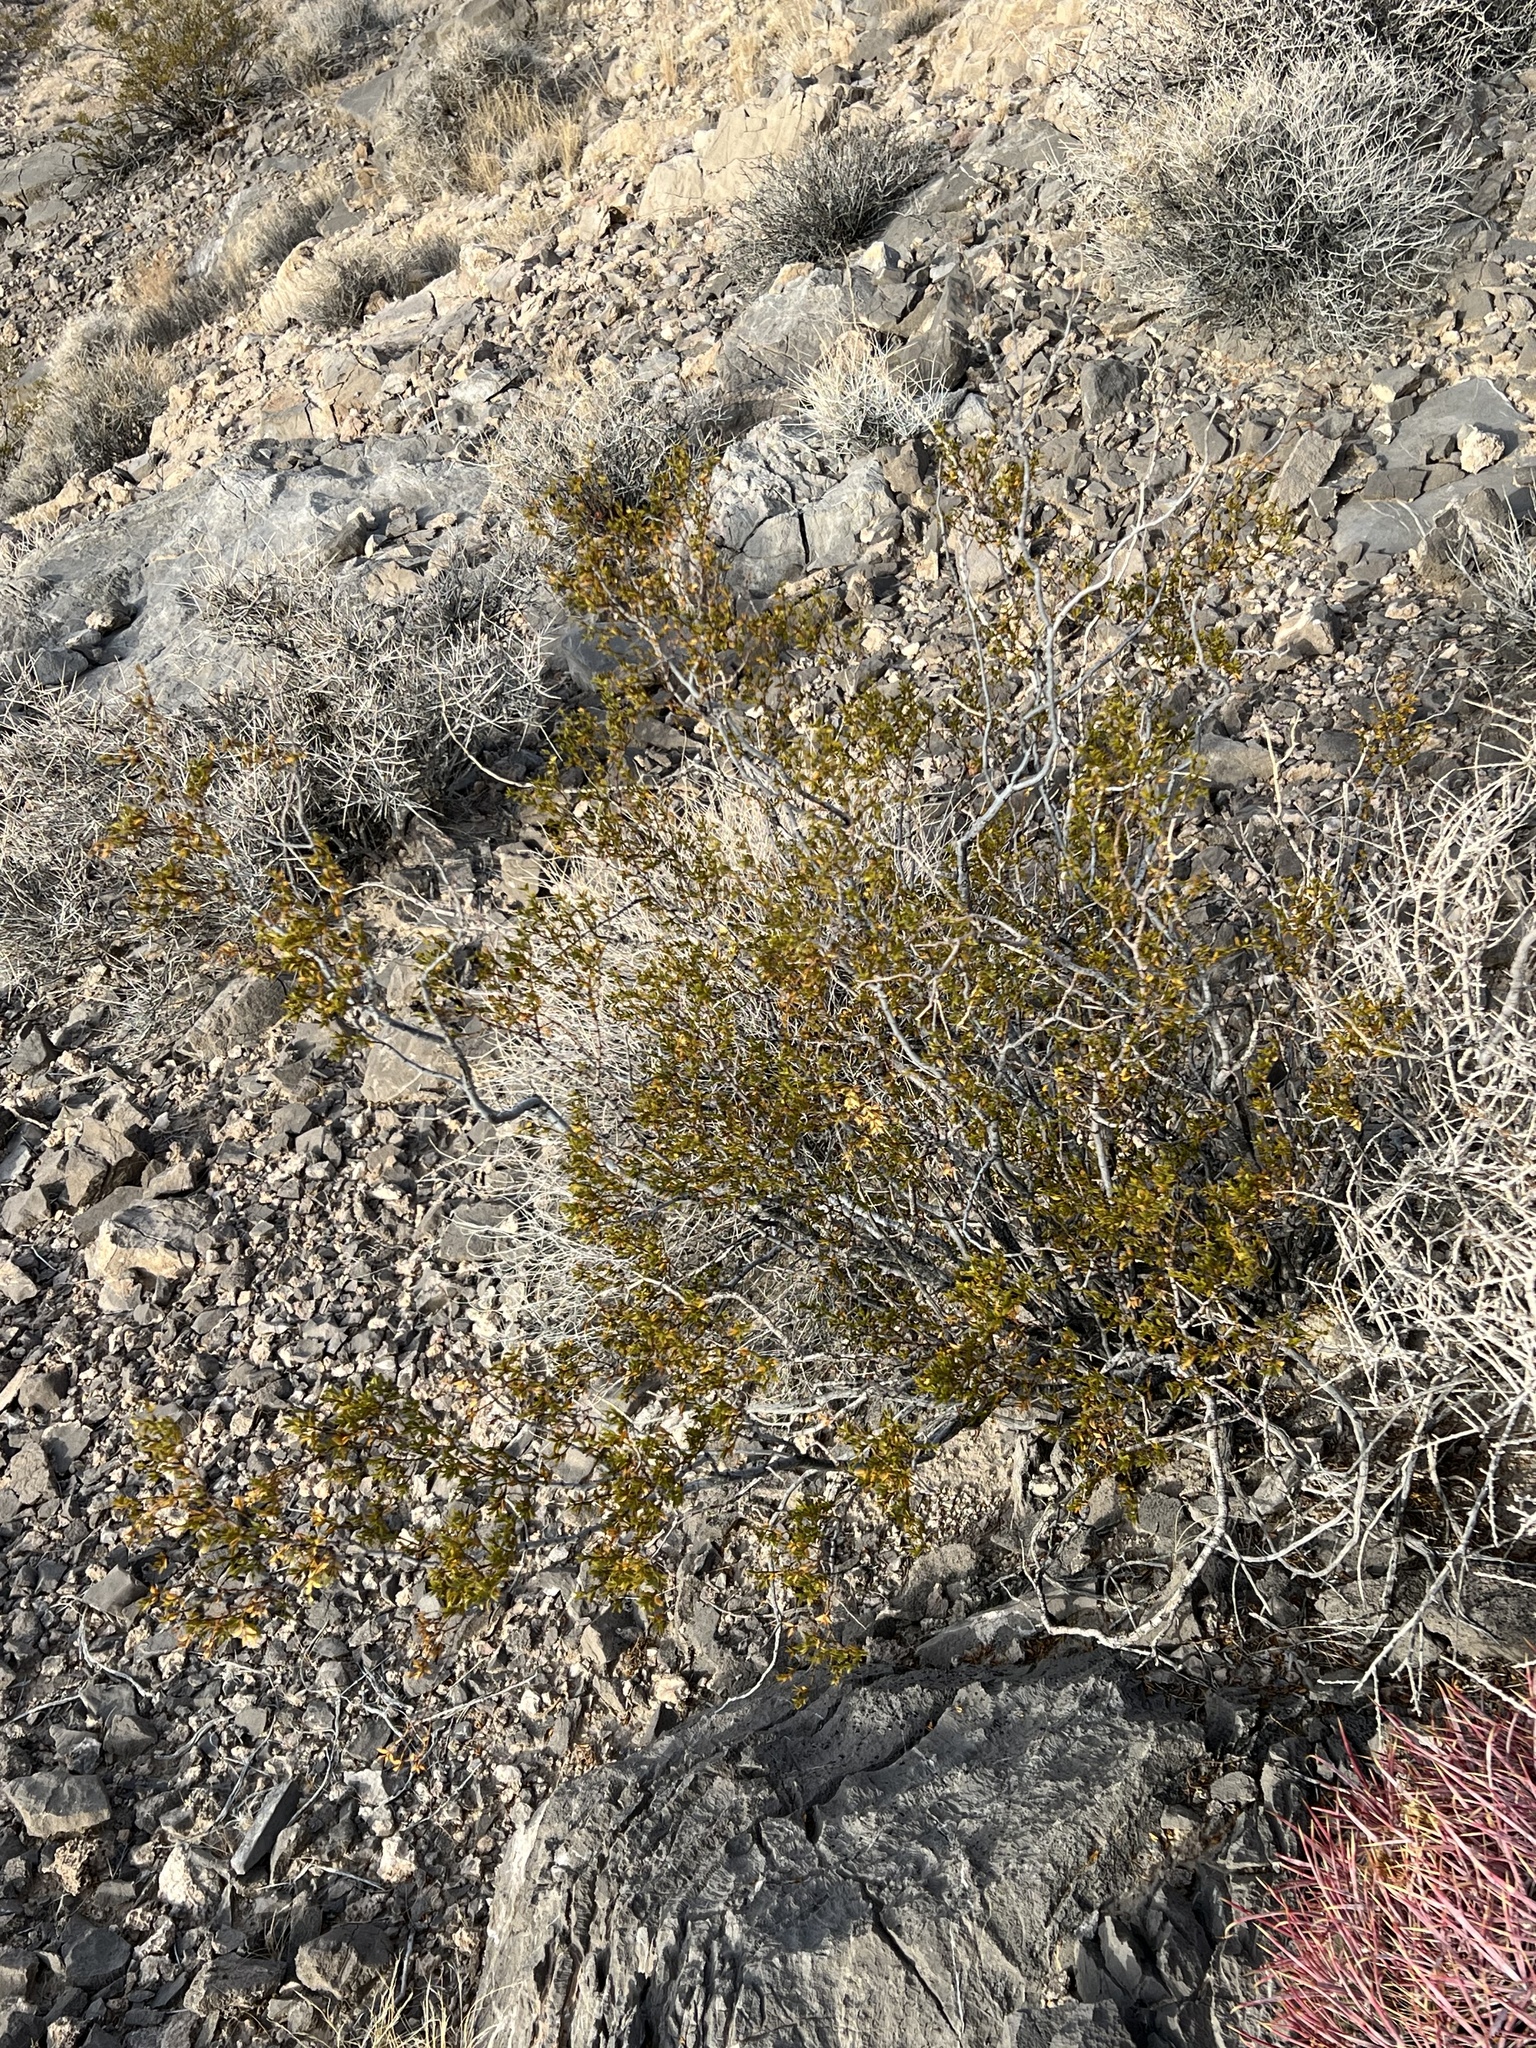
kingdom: Plantae
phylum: Tracheophyta
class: Magnoliopsida
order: Zygophyllales
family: Zygophyllaceae
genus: Larrea
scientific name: Larrea tridentata
